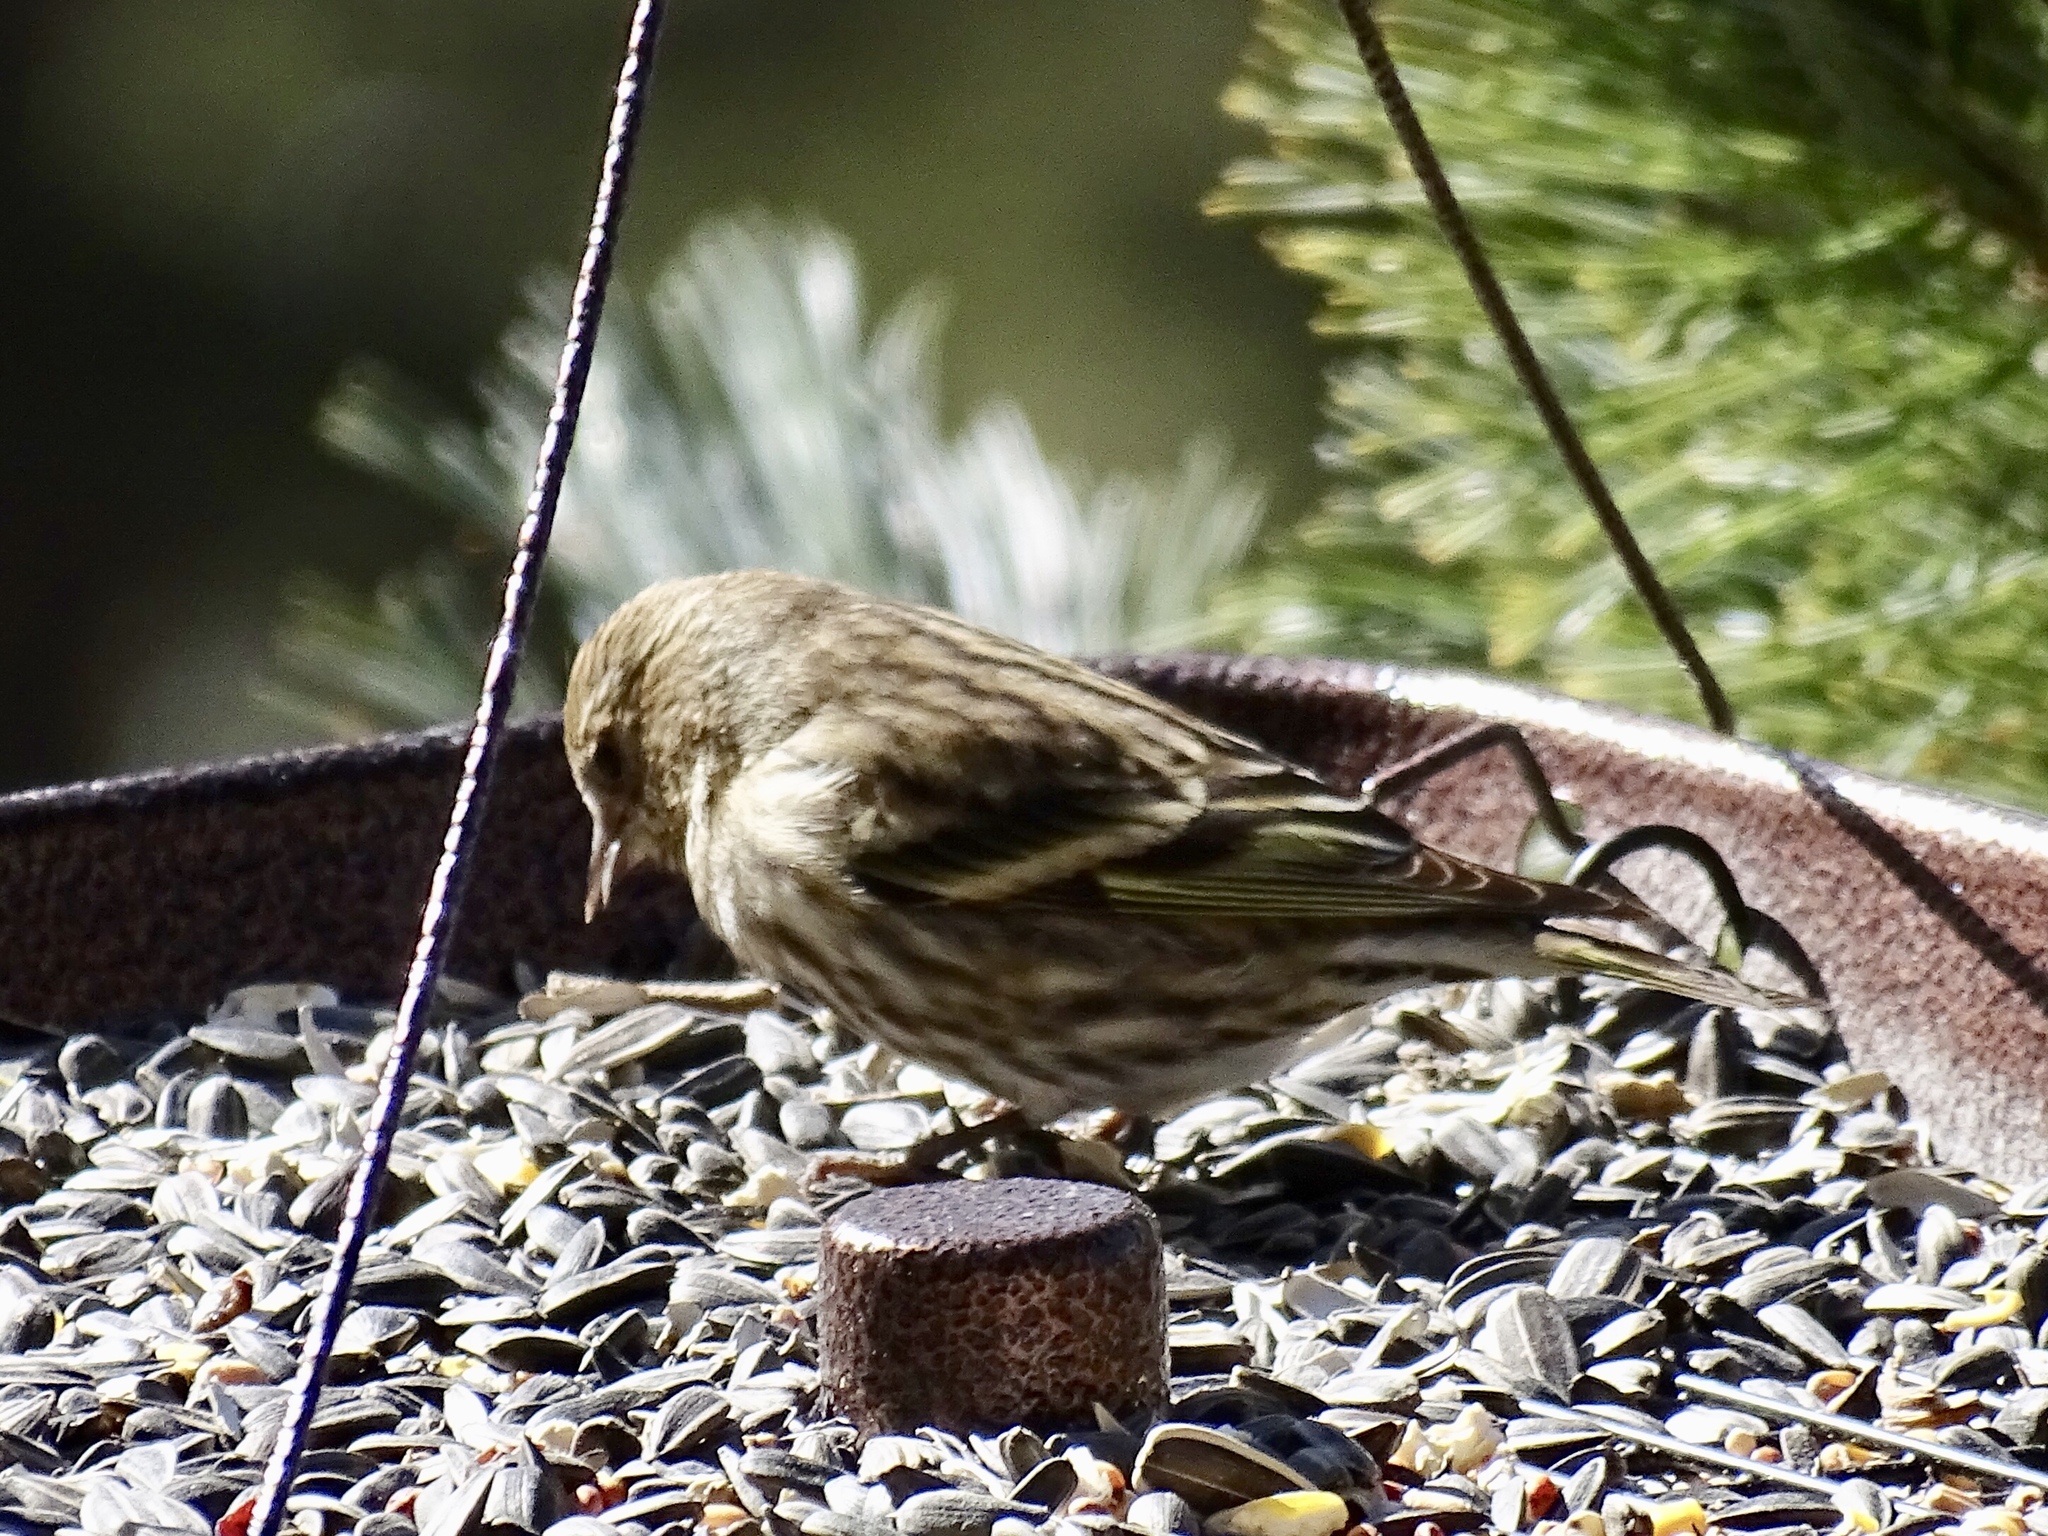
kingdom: Animalia
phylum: Chordata
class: Aves
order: Passeriformes
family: Fringillidae
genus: Spinus
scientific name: Spinus pinus
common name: Pine siskin
